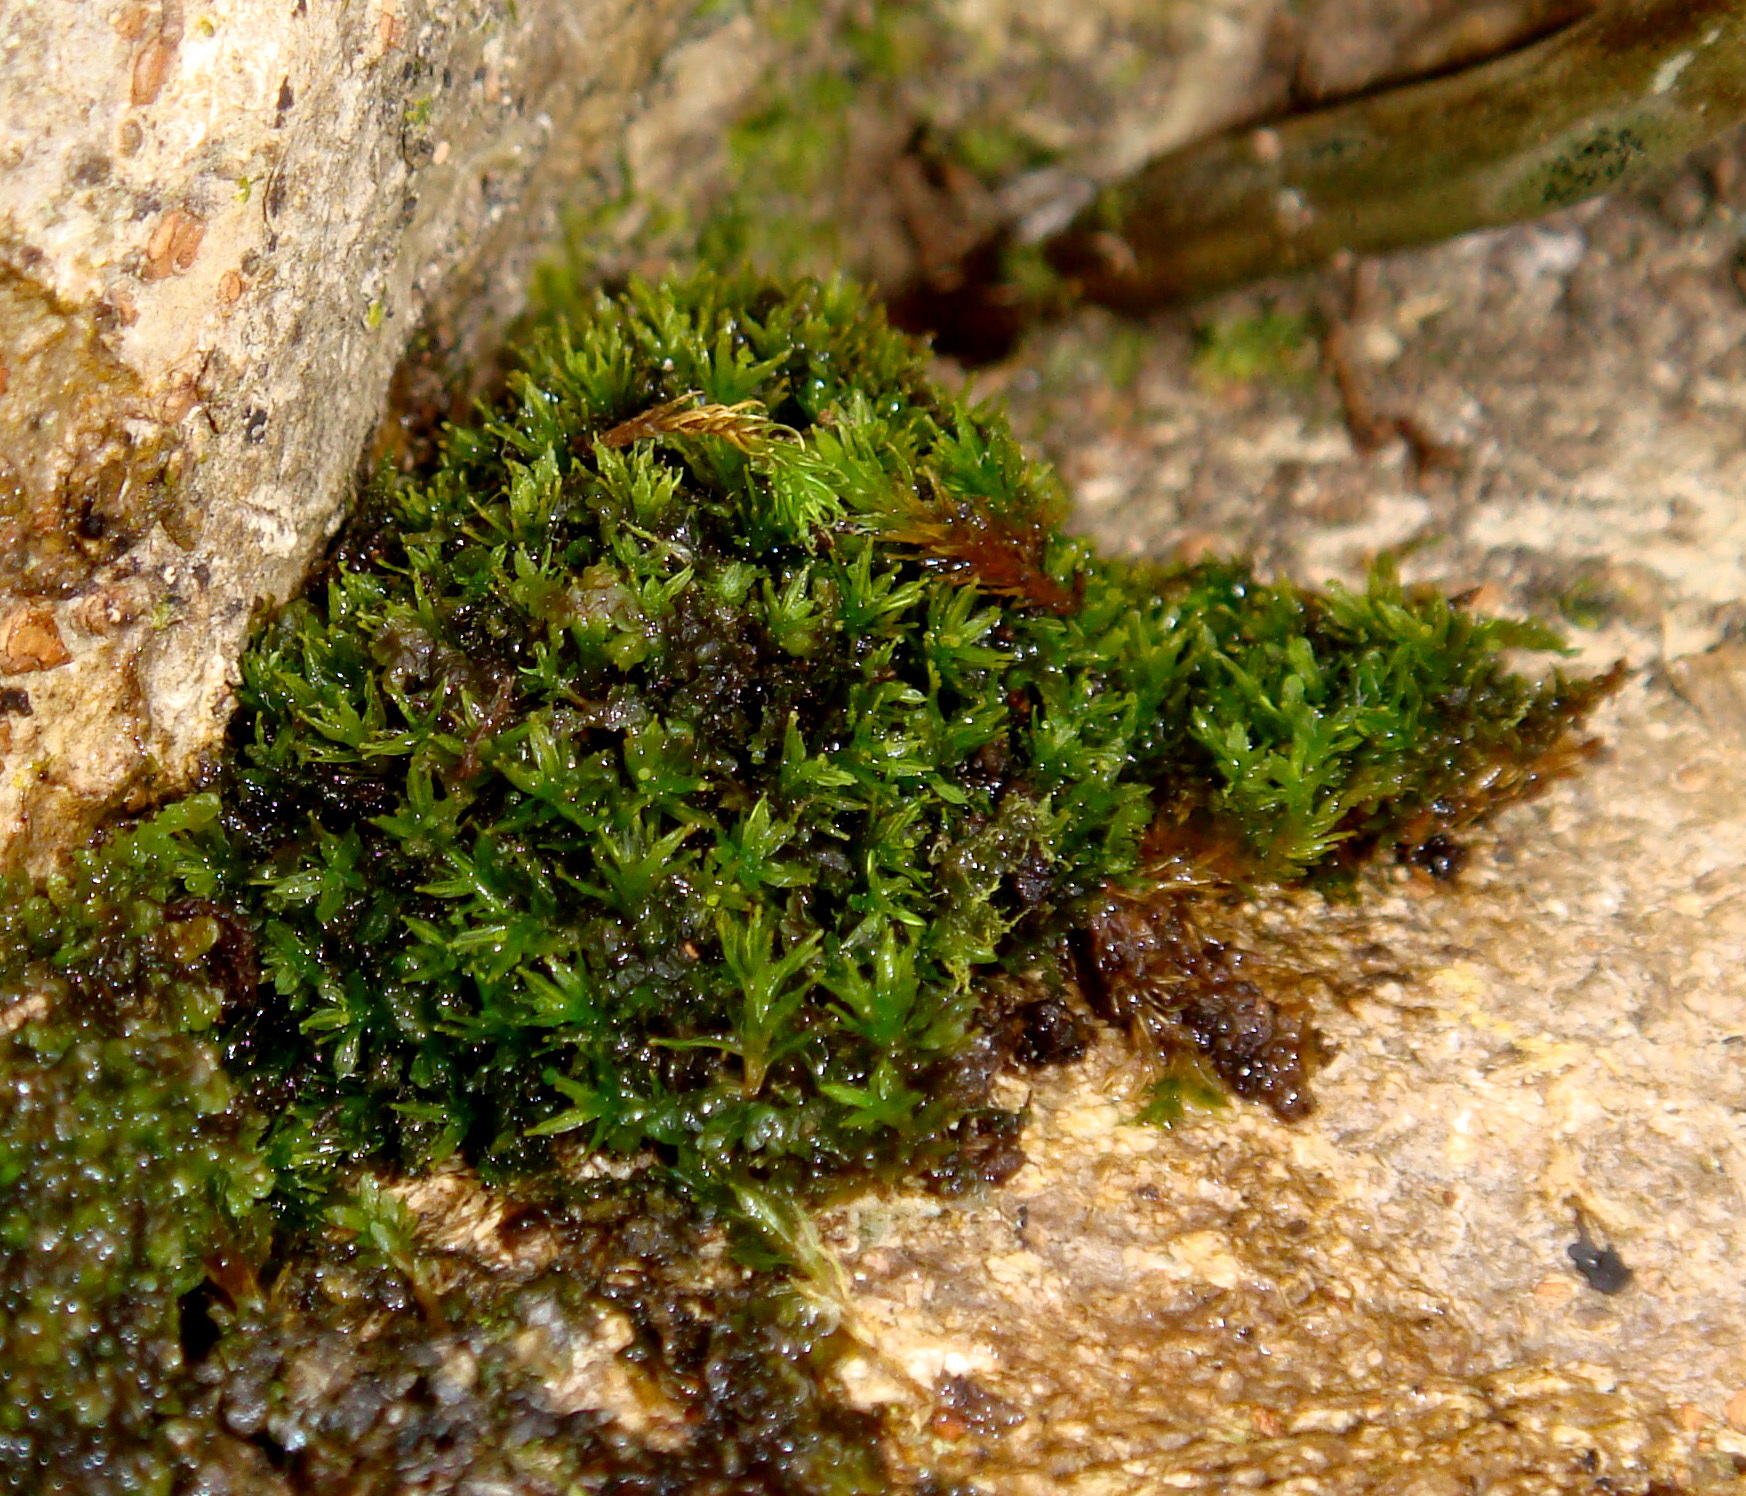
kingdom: Plantae
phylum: Bryophyta
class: Bryopsida
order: Dicranales
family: Calymperaceae
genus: Calymperes
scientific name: Calymperes tenerum
